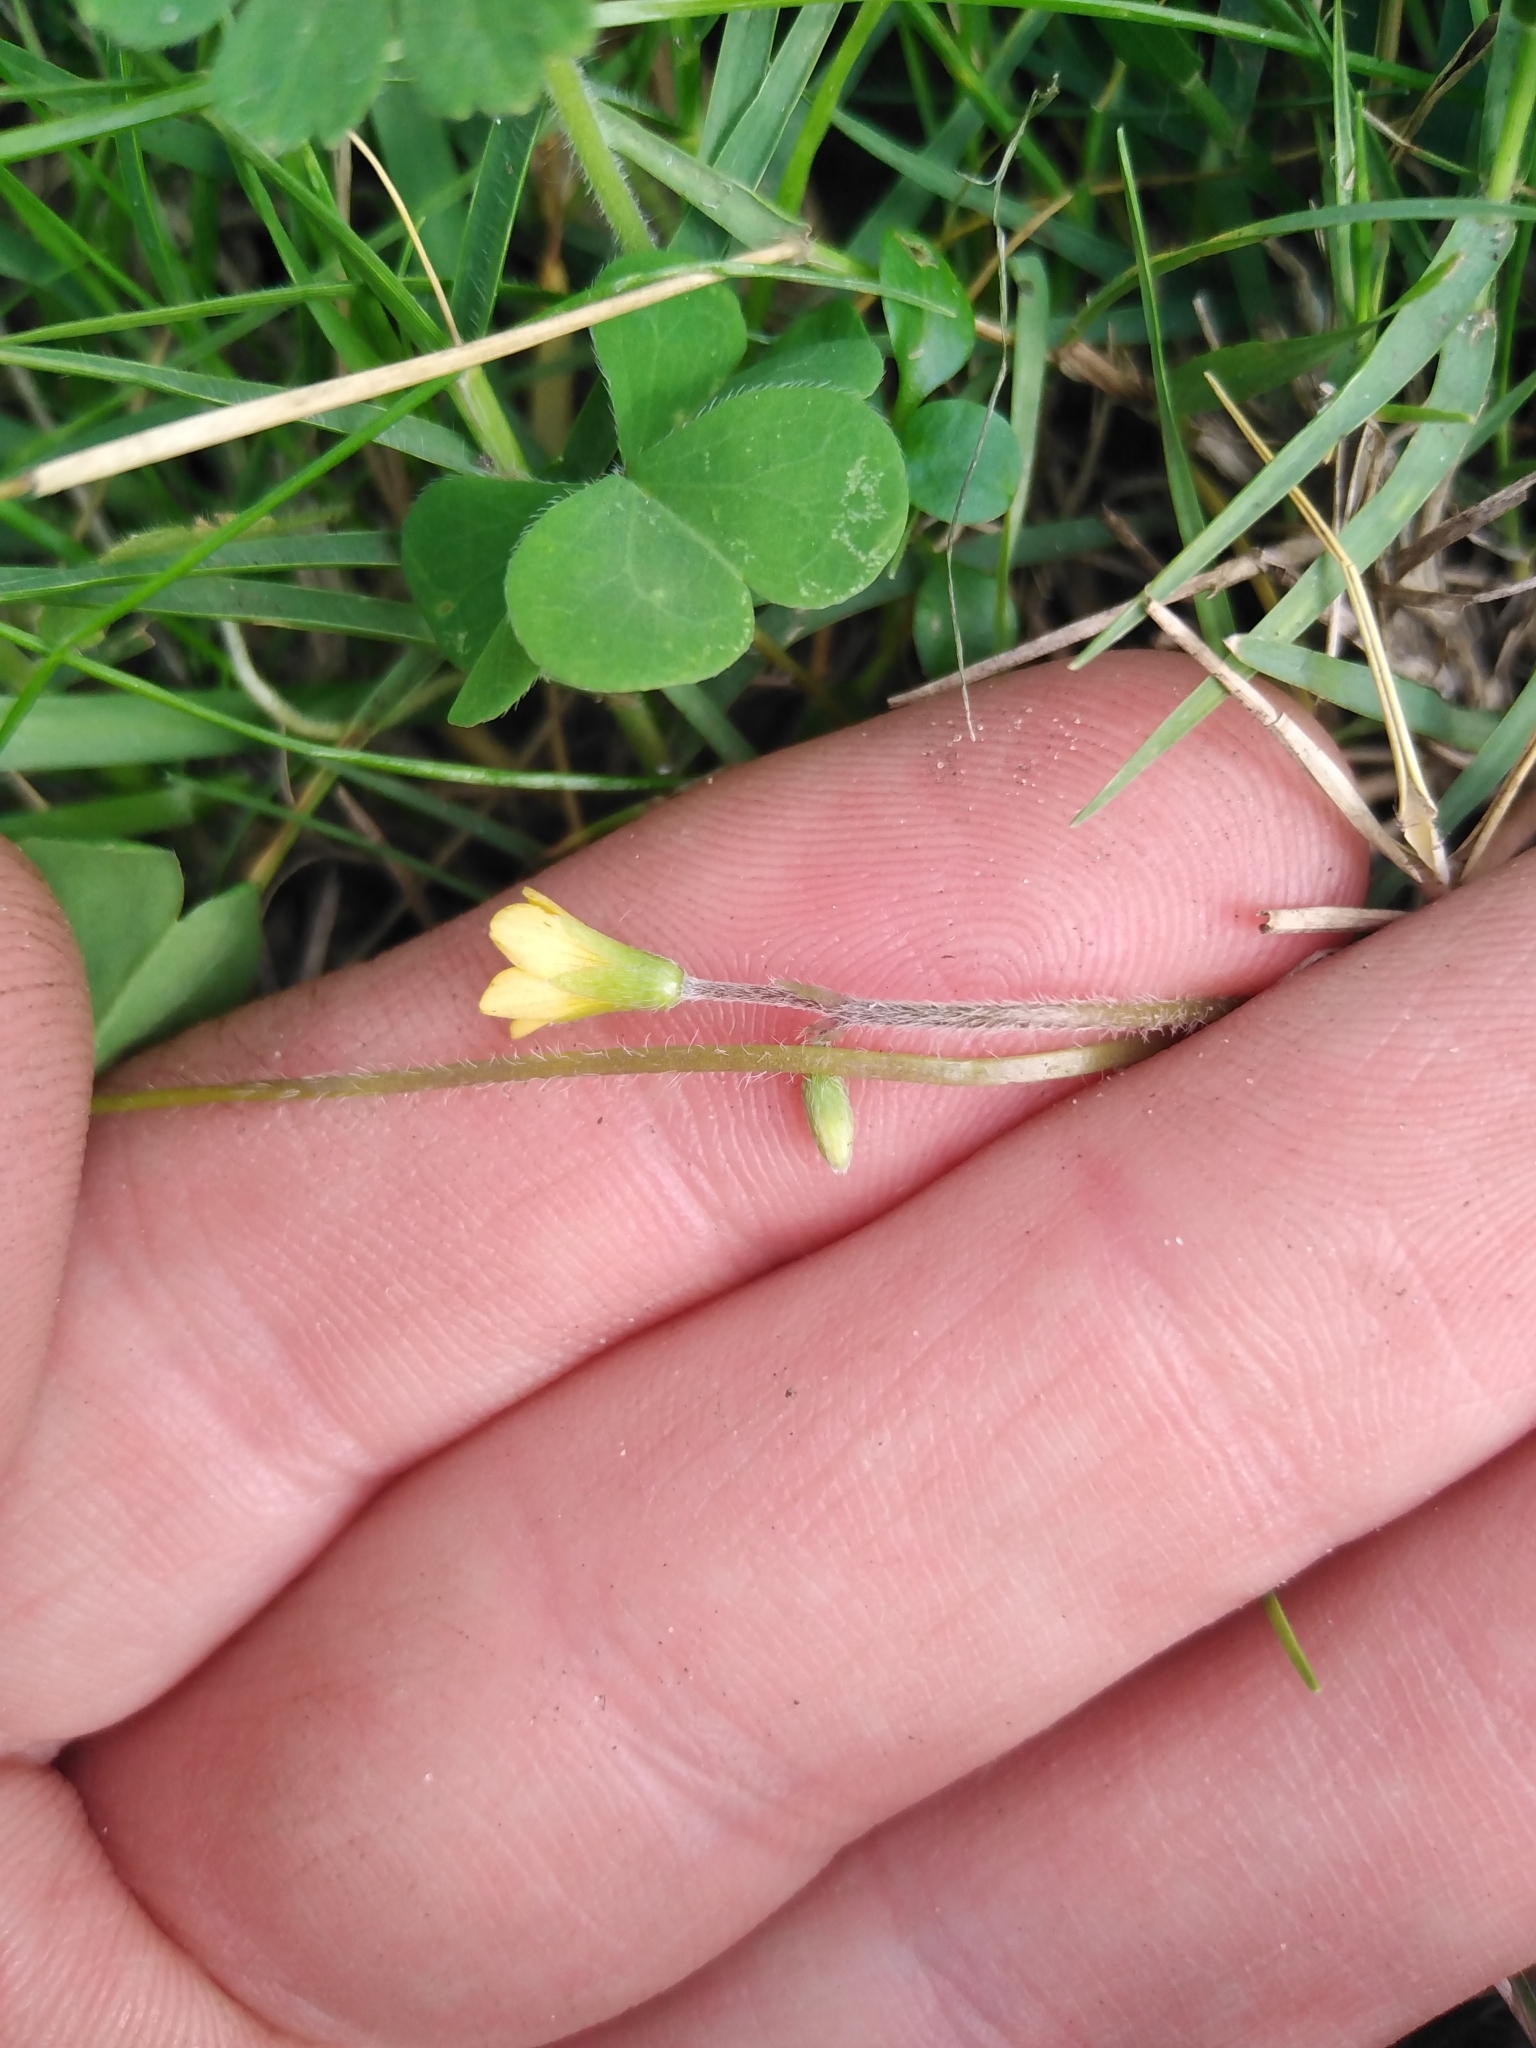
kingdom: Plantae
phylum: Tracheophyta
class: Magnoliopsida
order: Oxalidales
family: Oxalidaceae
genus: Oxalis
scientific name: Oxalis corniculata
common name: Procumbent yellow-sorrel
